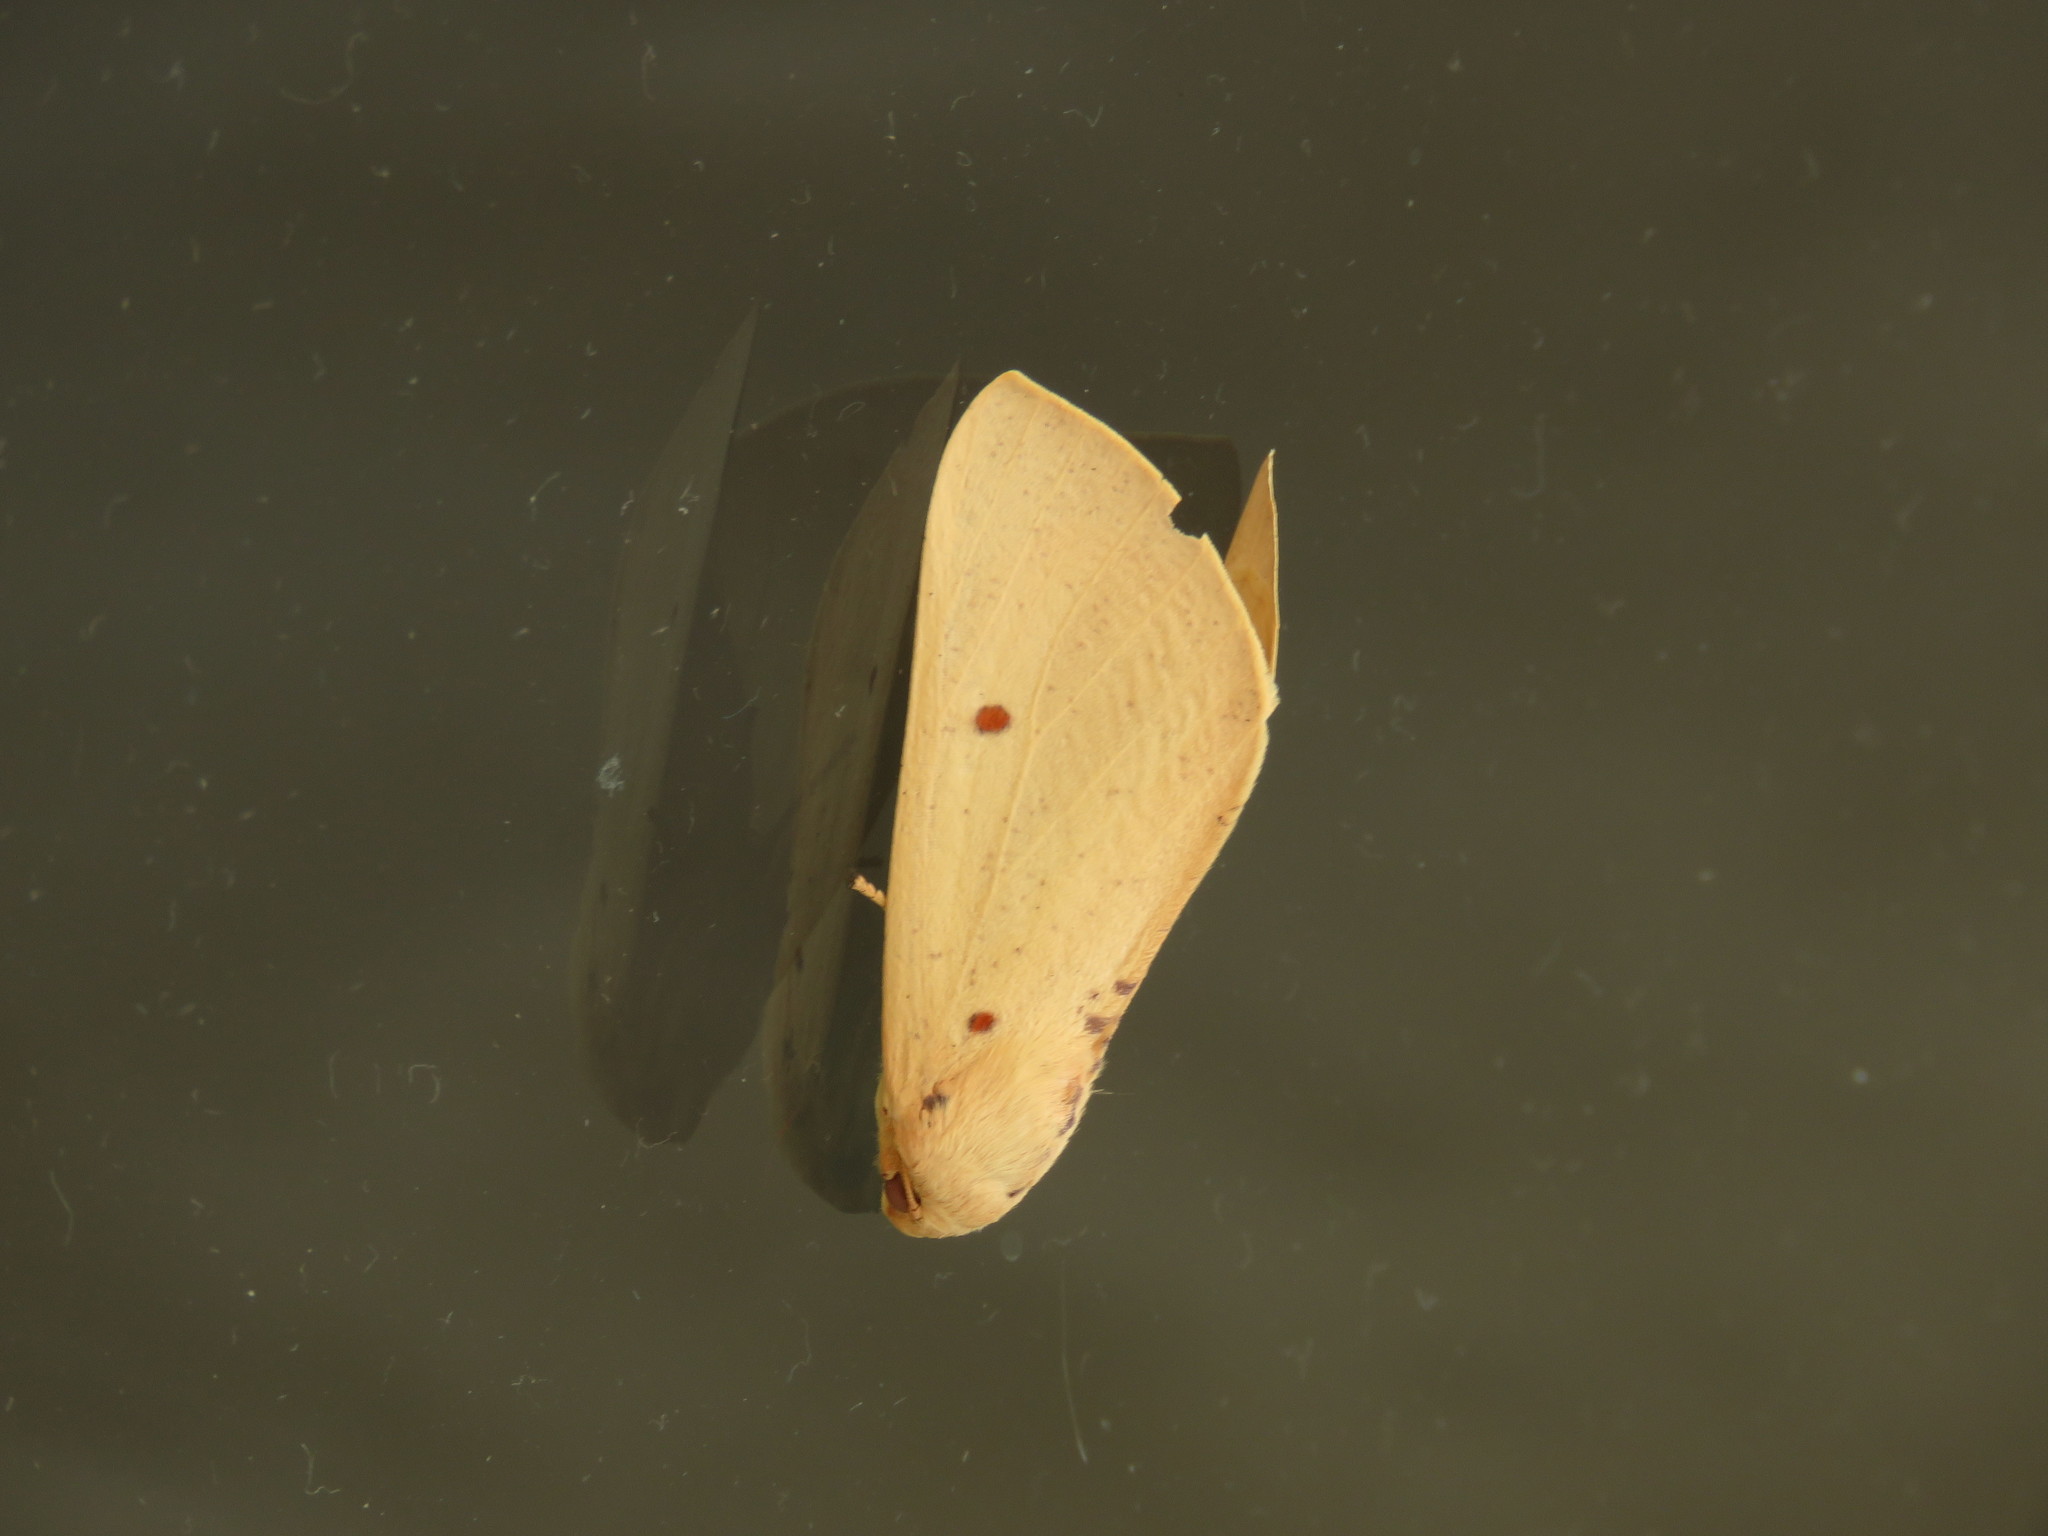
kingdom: Animalia
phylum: Arthropoda
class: Insecta
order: Lepidoptera
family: Geometridae
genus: Plesanemma
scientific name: Plesanemma fucata
